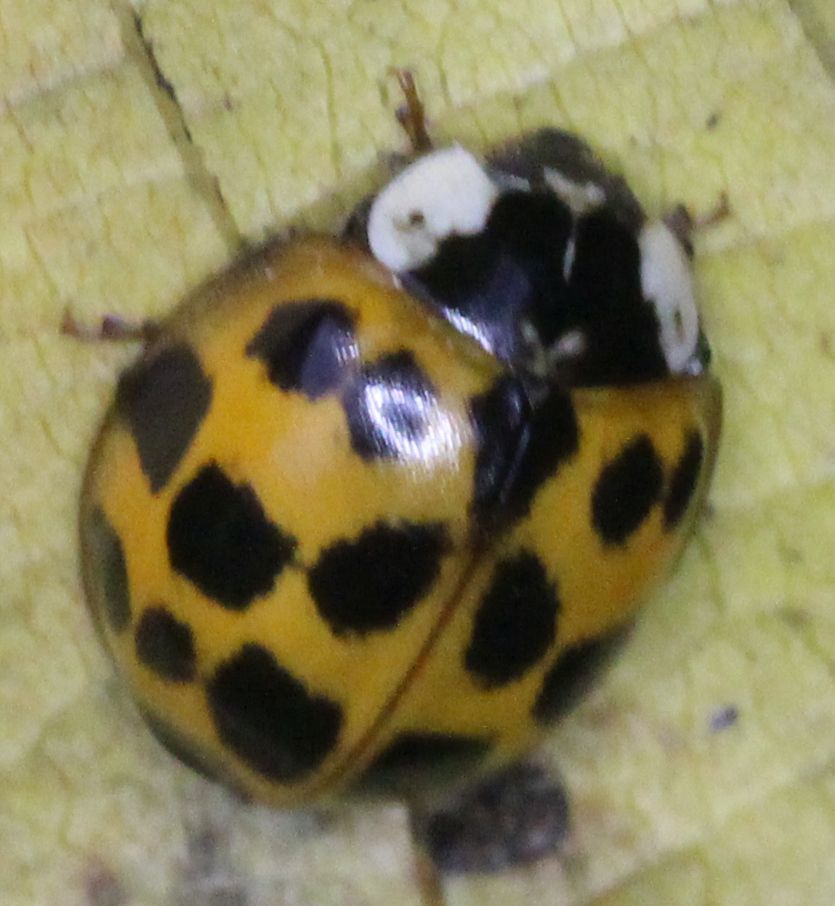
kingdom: Animalia
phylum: Arthropoda
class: Insecta
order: Coleoptera
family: Coccinellidae
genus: Harmonia
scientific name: Harmonia axyridis
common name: Harlequin ladybird
